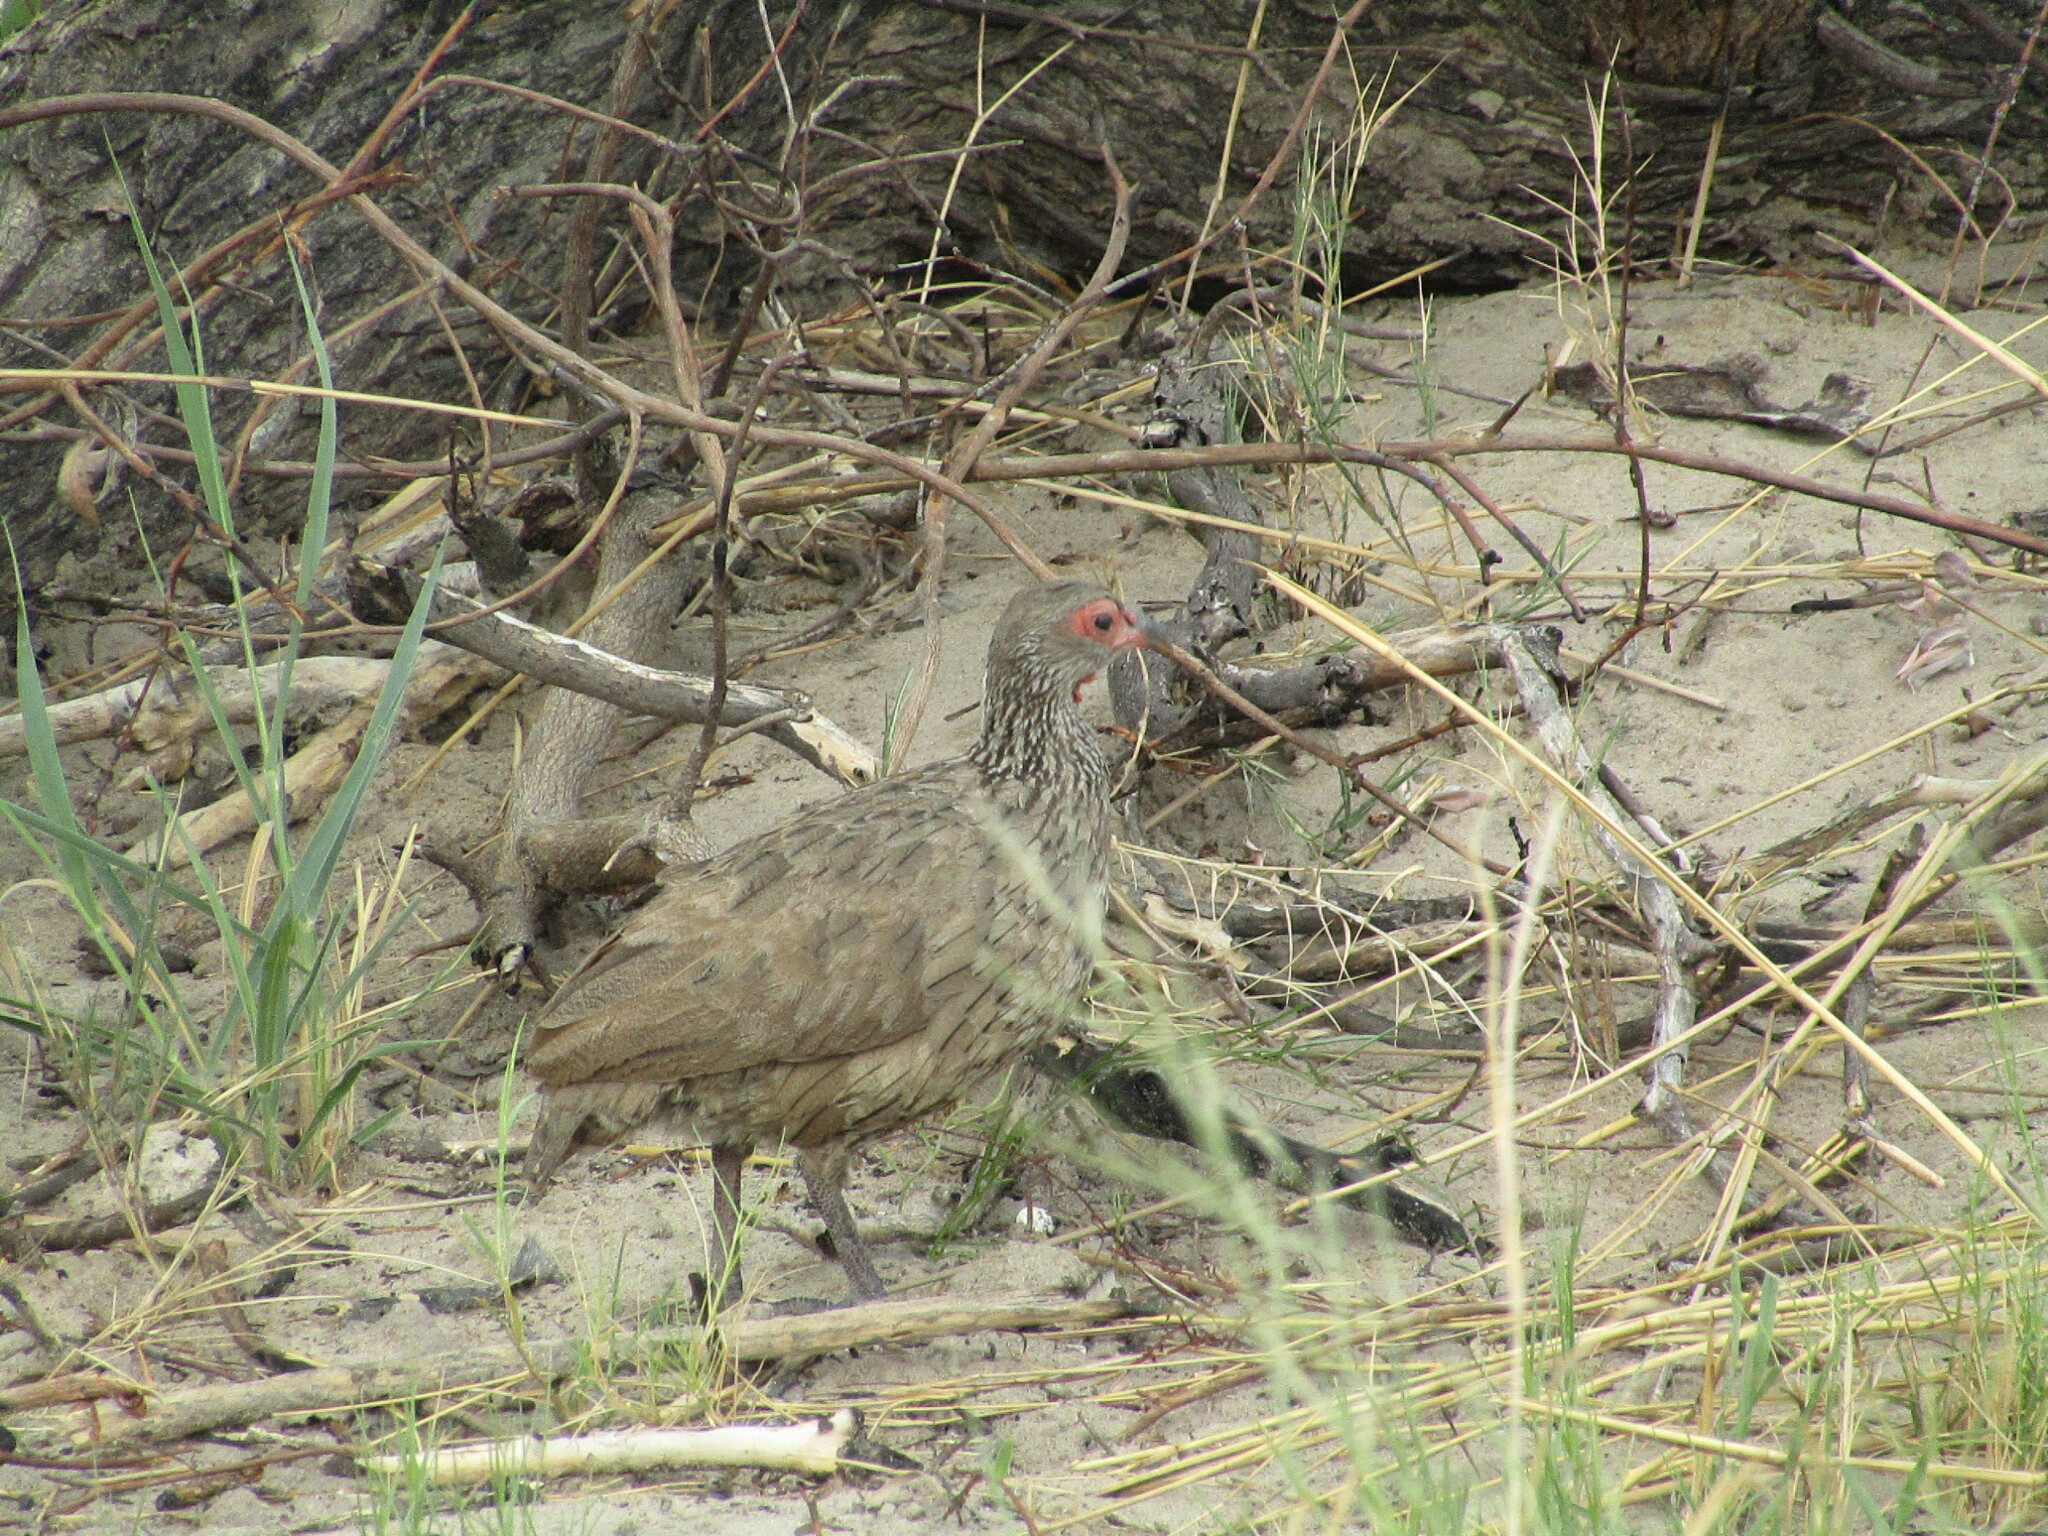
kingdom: Animalia
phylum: Chordata
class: Aves
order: Galliformes
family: Phasianidae
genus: Pternistis
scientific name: Pternistis swainsonii
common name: Swainson's spurfowl
